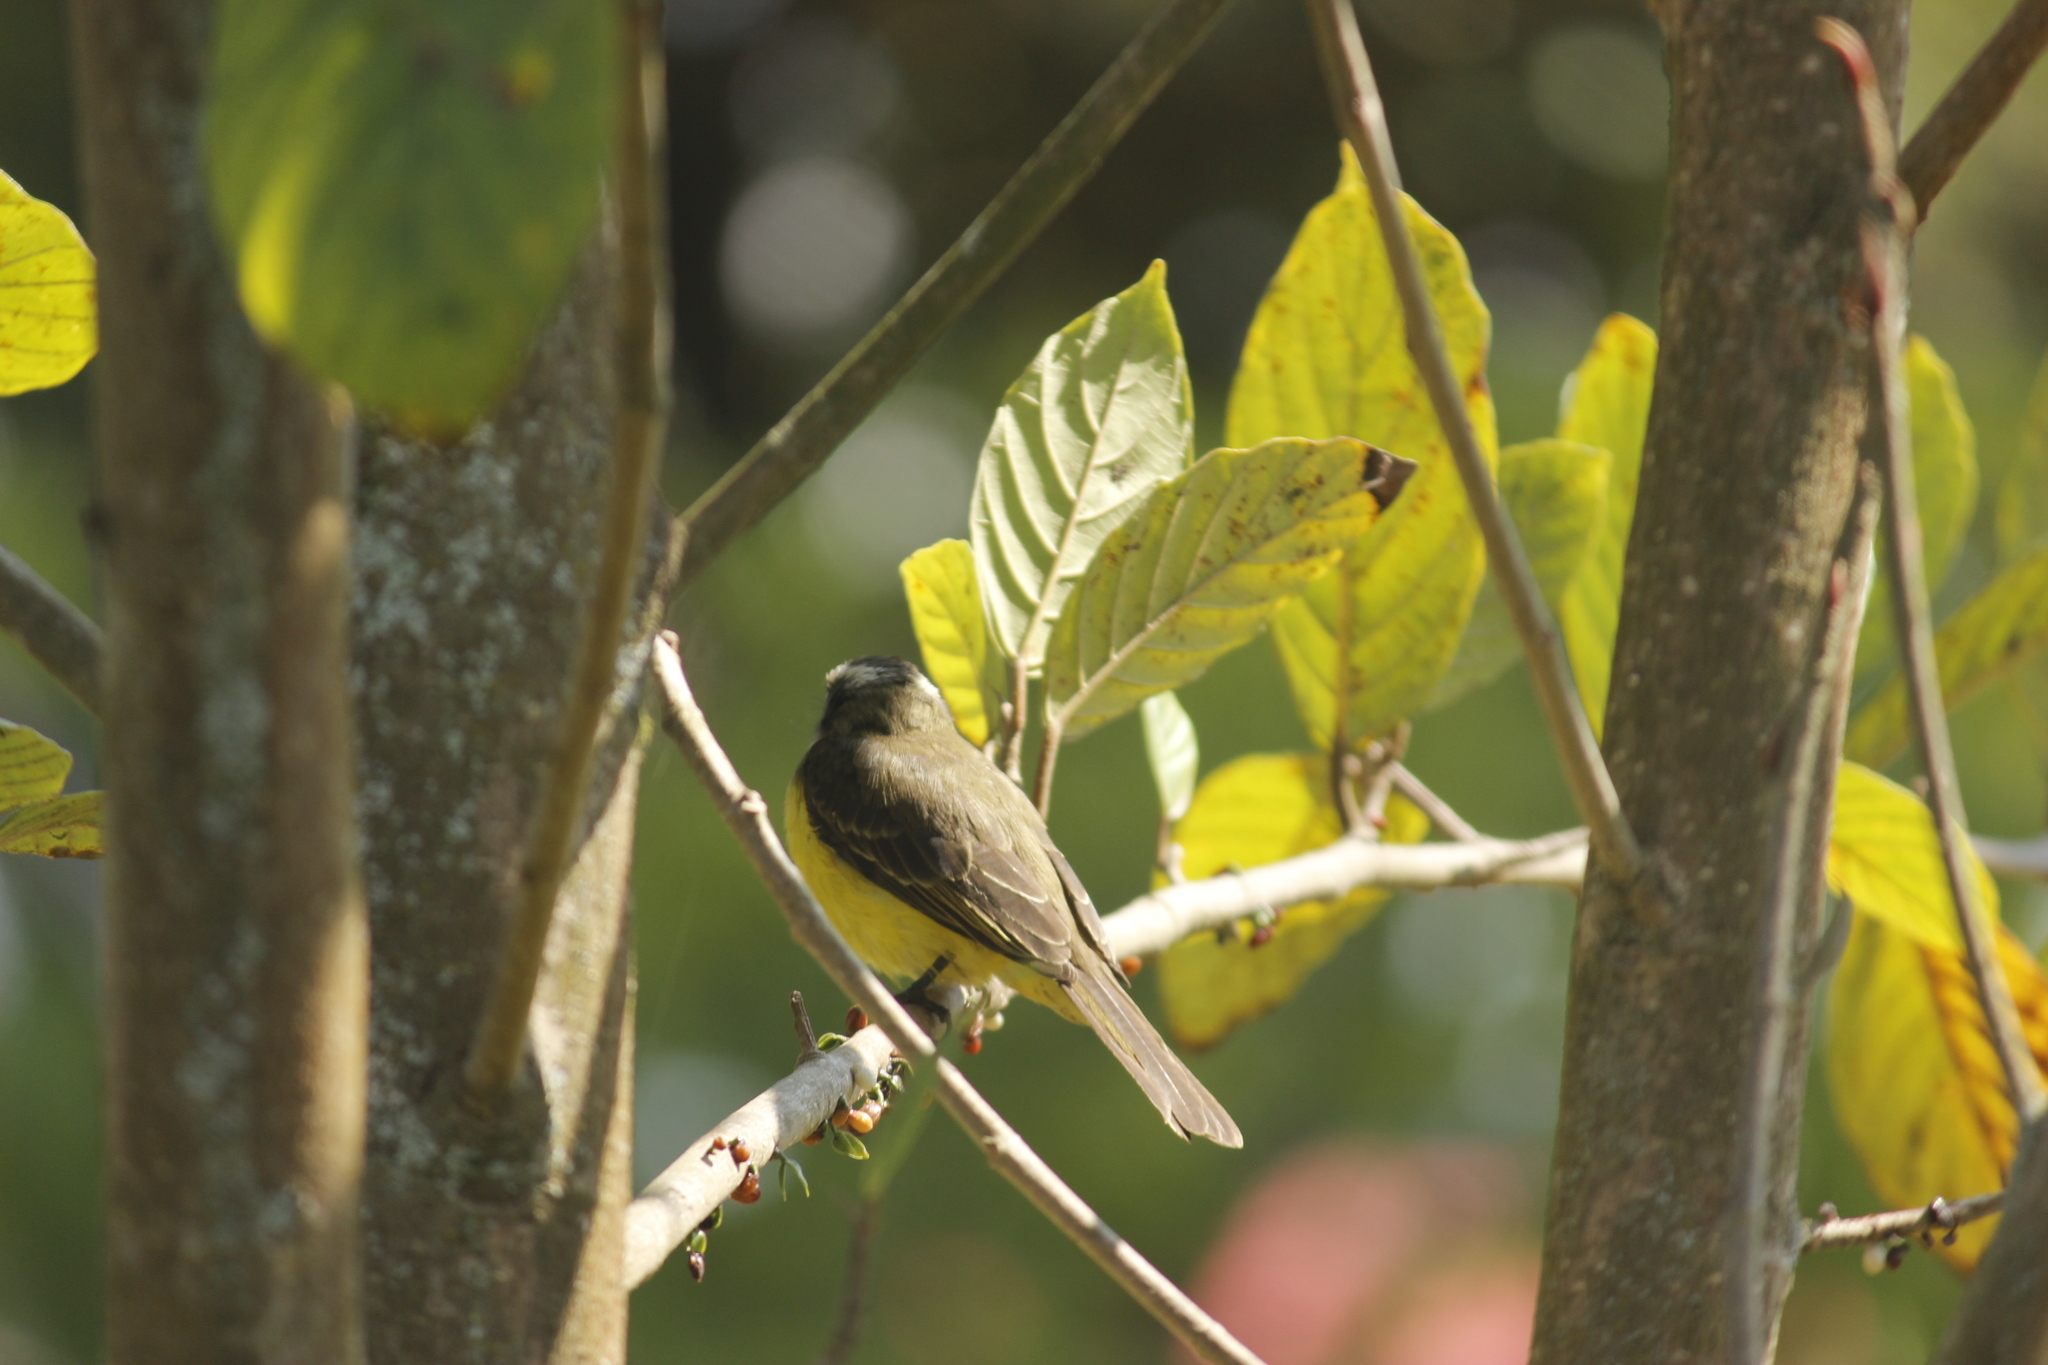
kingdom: Animalia
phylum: Chordata
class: Aves
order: Passeriformes
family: Tyrannidae
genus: Myiozetetes
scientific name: Myiozetetes similis
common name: Social flycatcher
